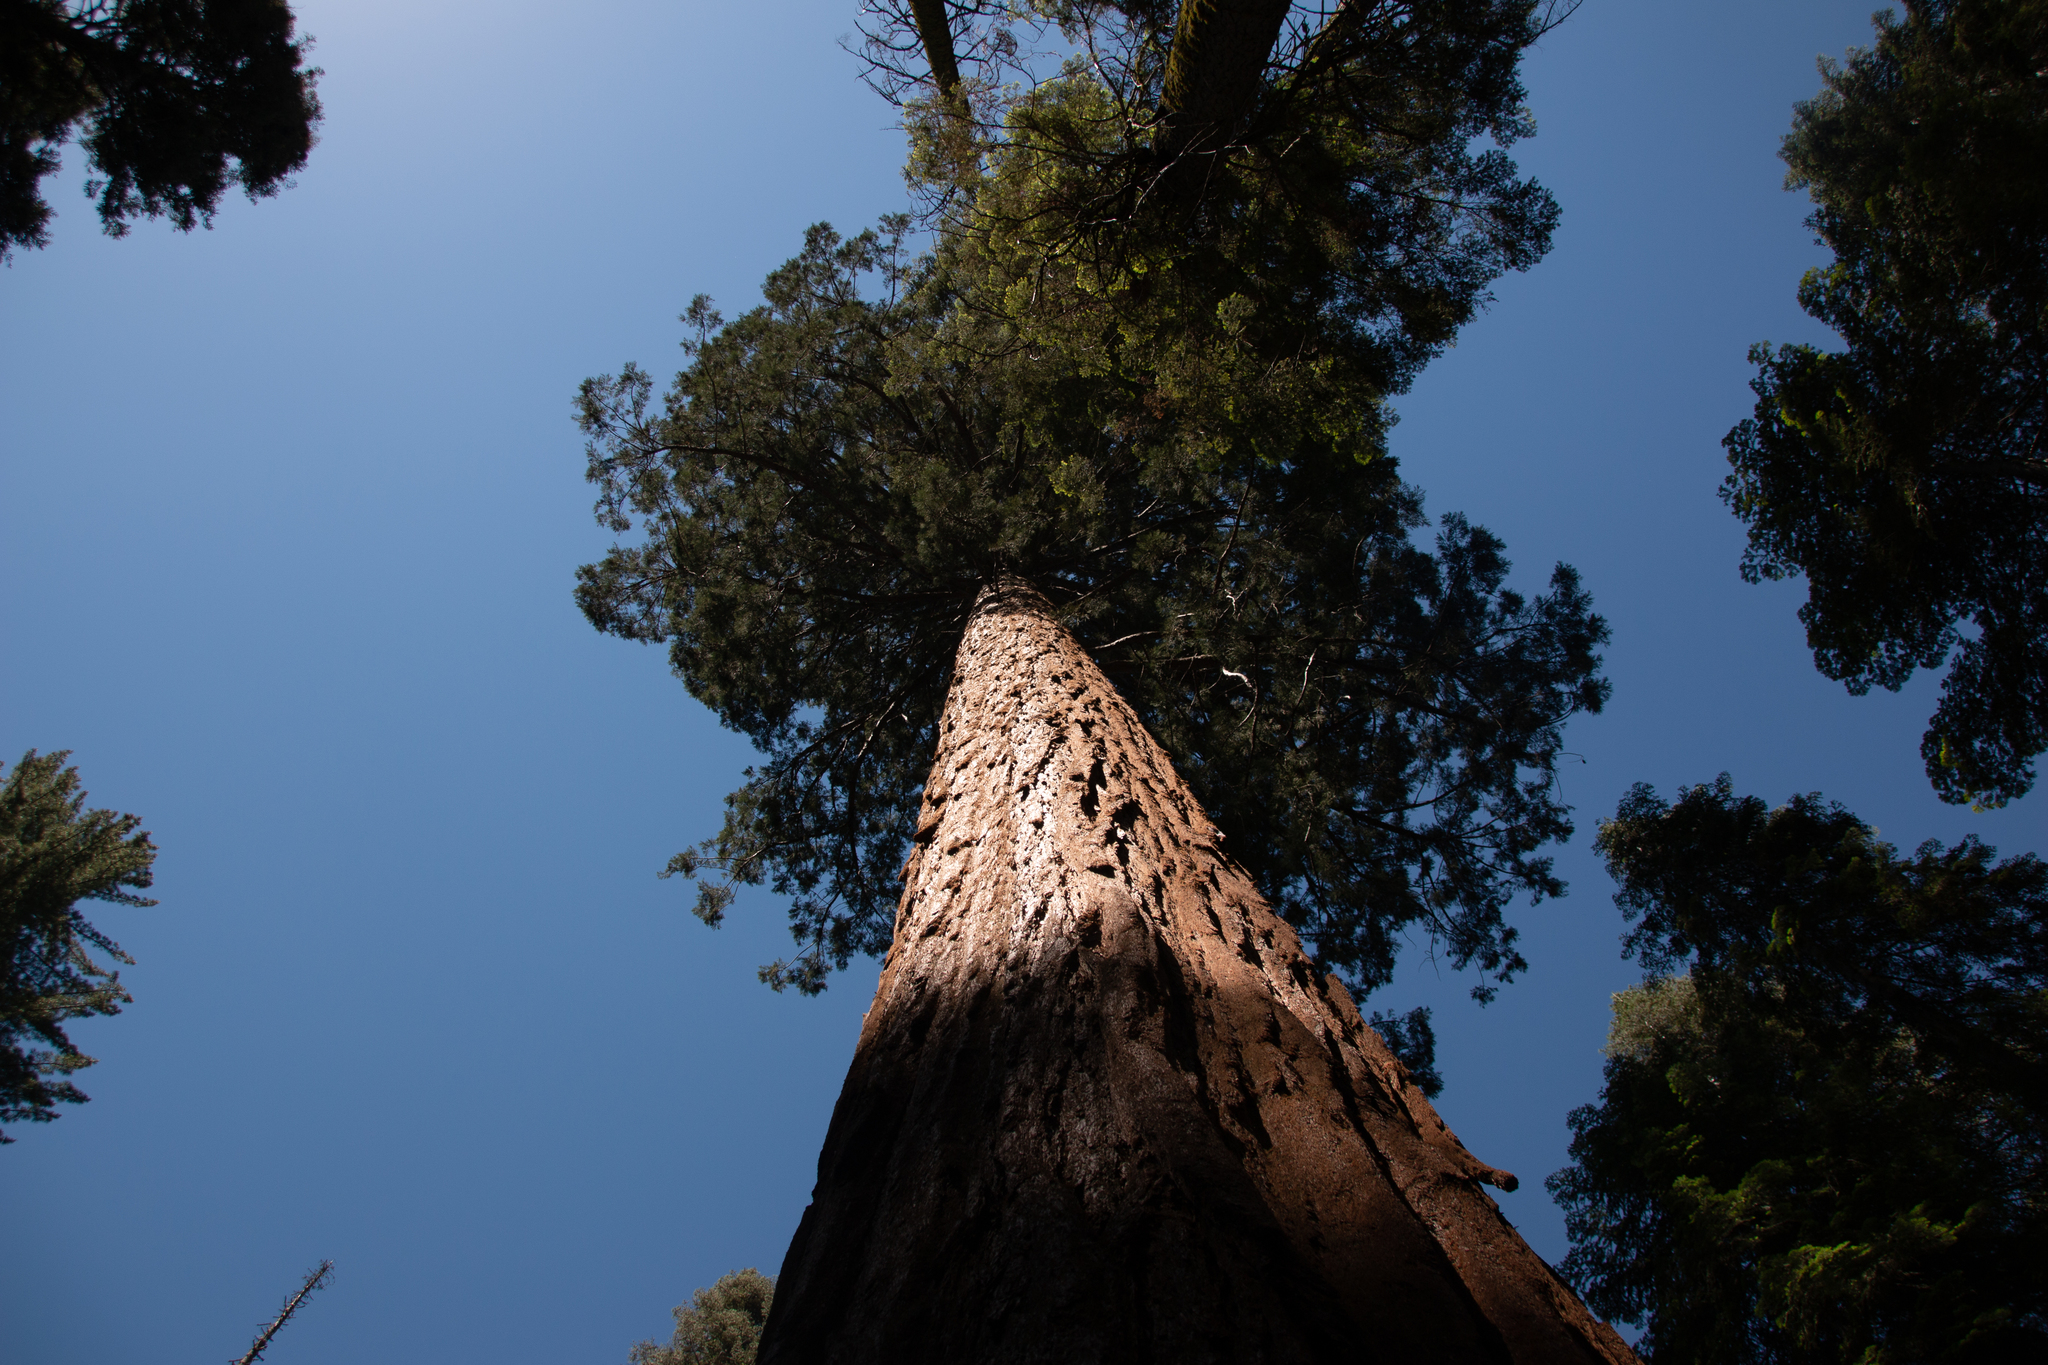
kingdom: Plantae
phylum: Tracheophyta
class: Pinopsida
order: Pinales
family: Cupressaceae
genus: Sequoiadendron
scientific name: Sequoiadendron giganteum
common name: Wellingtonia
